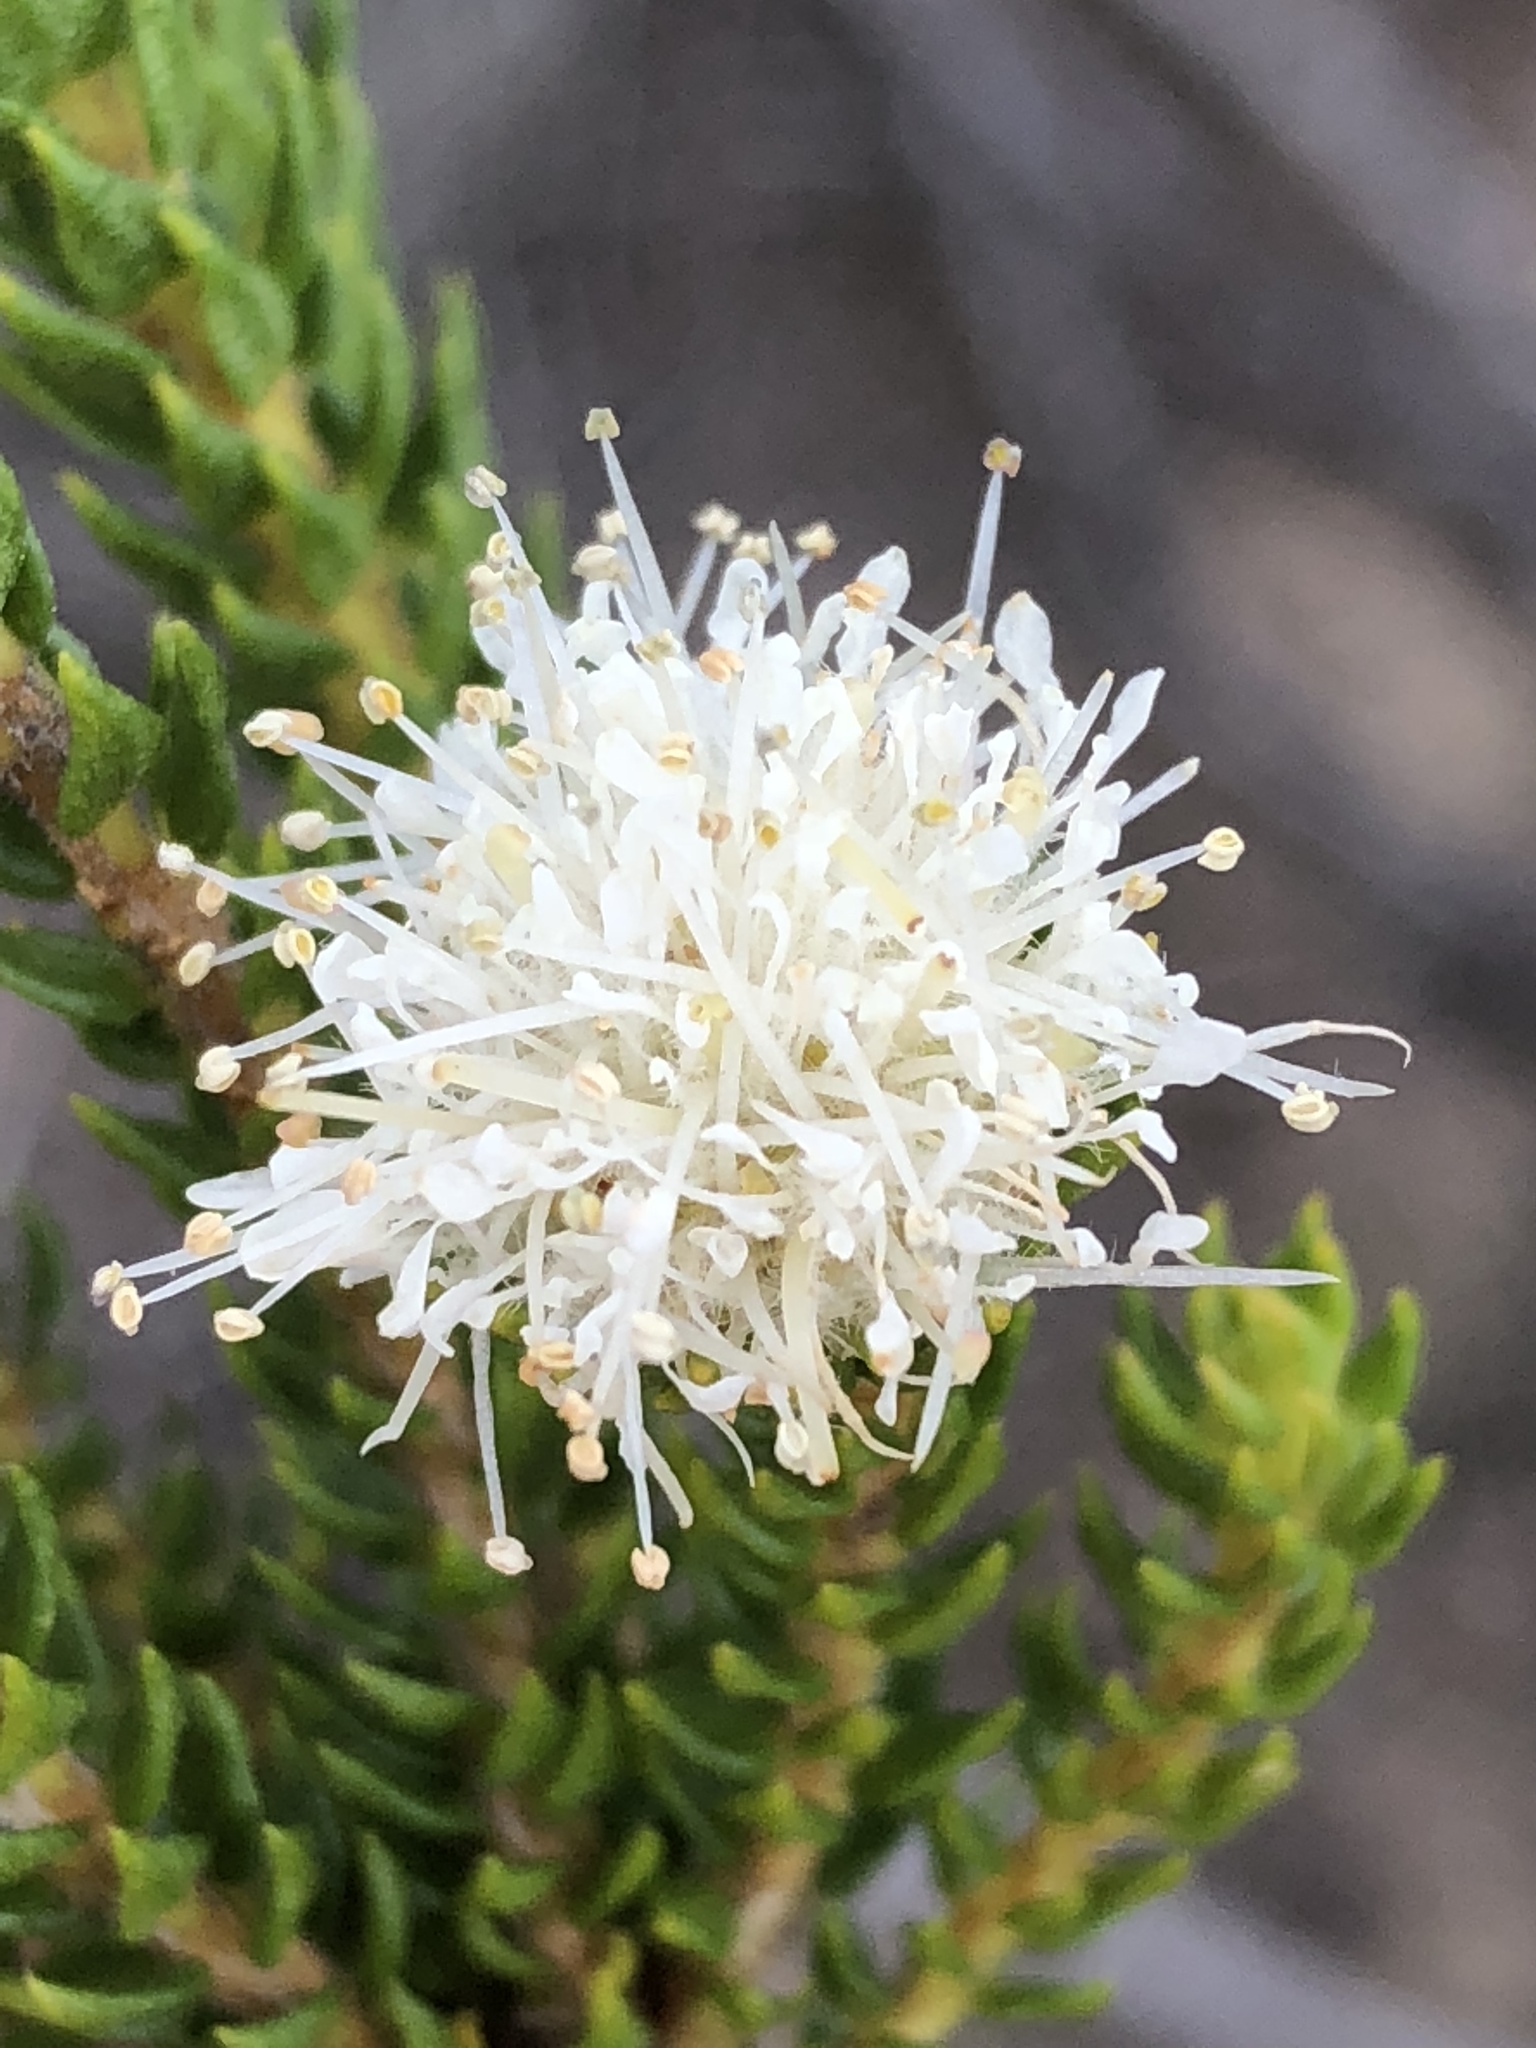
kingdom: Plantae
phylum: Tracheophyta
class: Magnoliopsida
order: Sapindales
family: Rutaceae
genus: Agathosma
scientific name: Agathosma scaberula
